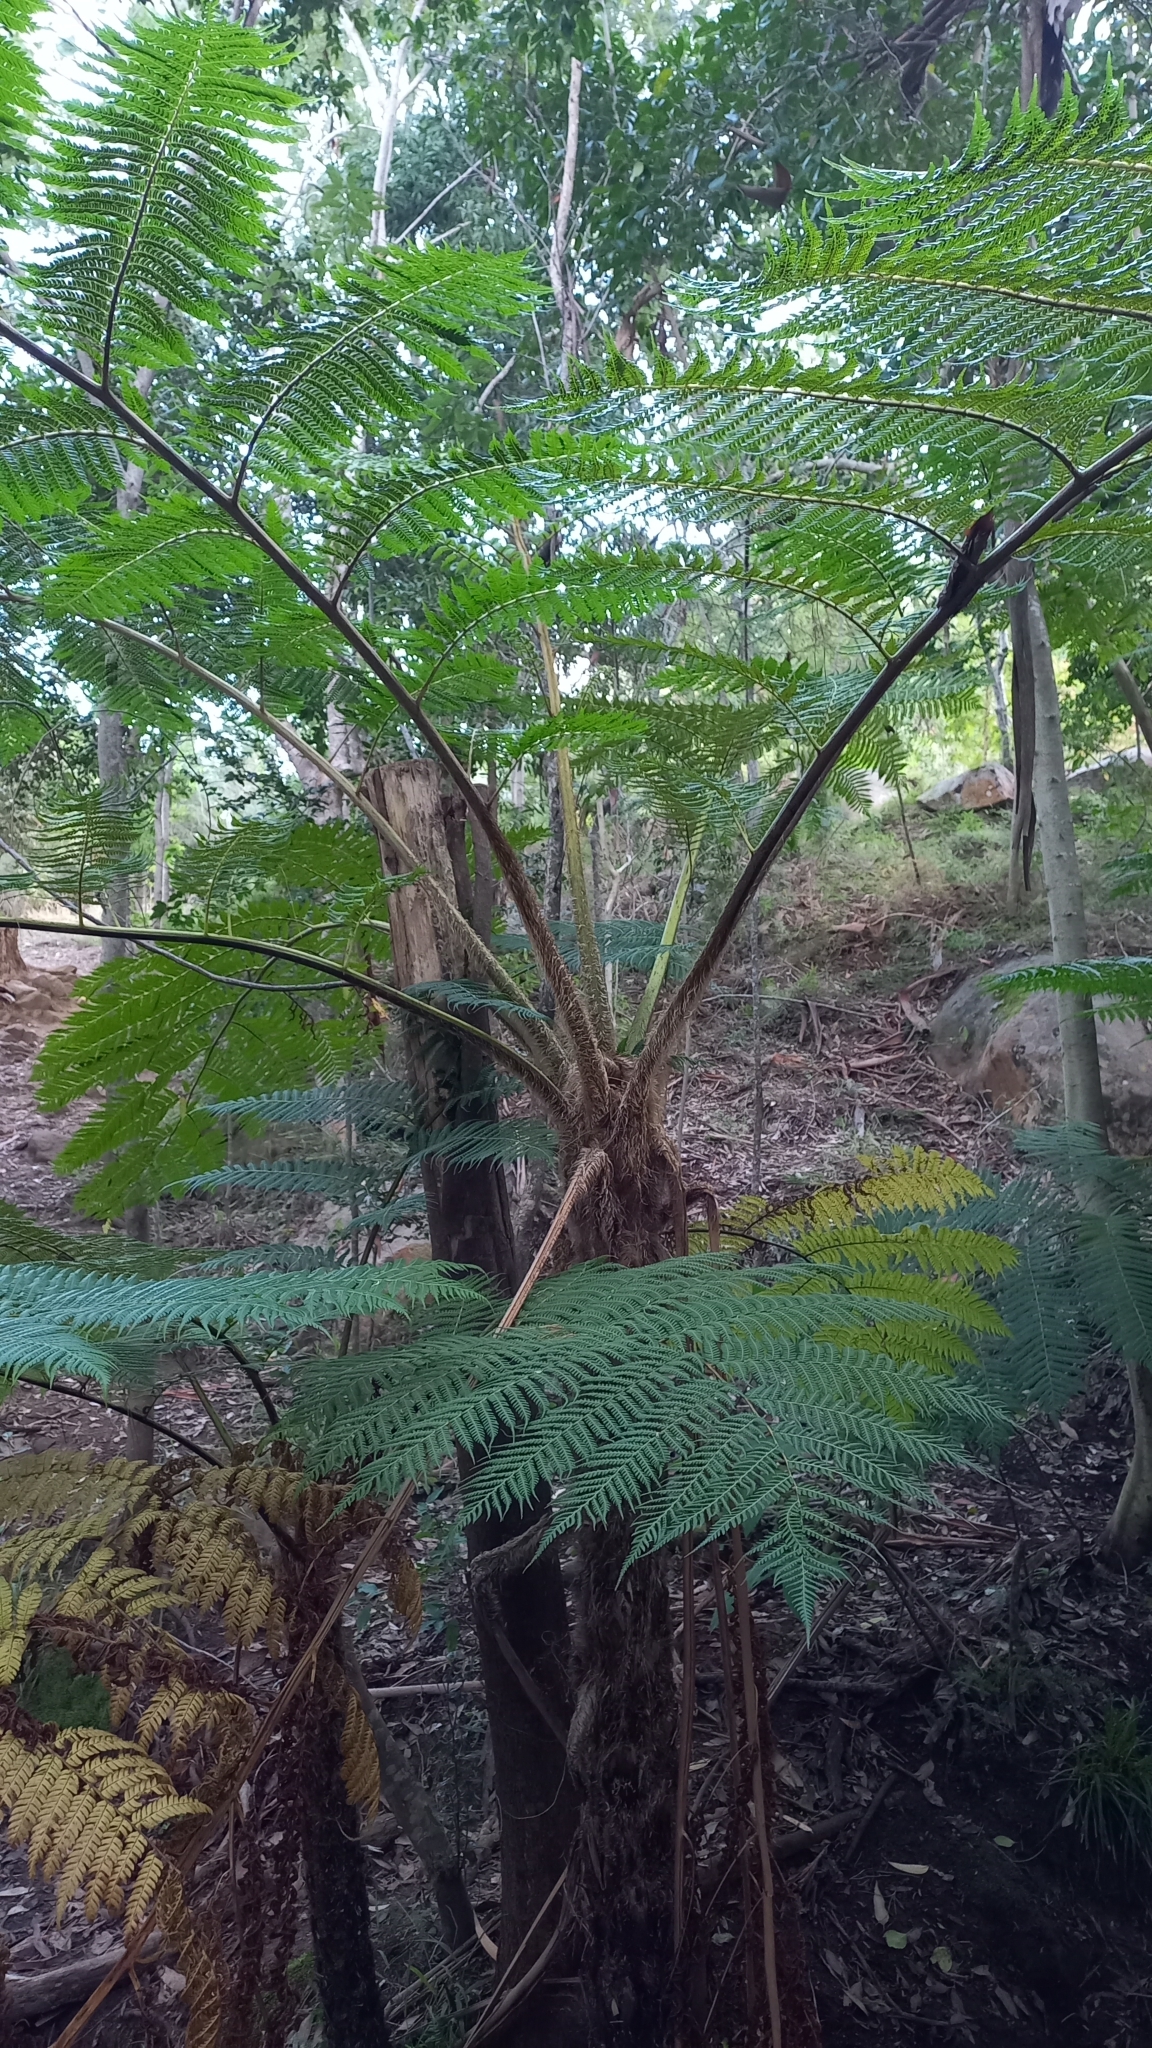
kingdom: Plantae
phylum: Tracheophyta
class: Polypodiopsida
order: Cyatheales
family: Cyatheaceae
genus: Sphaeropteris
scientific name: Sphaeropteris cooperi
